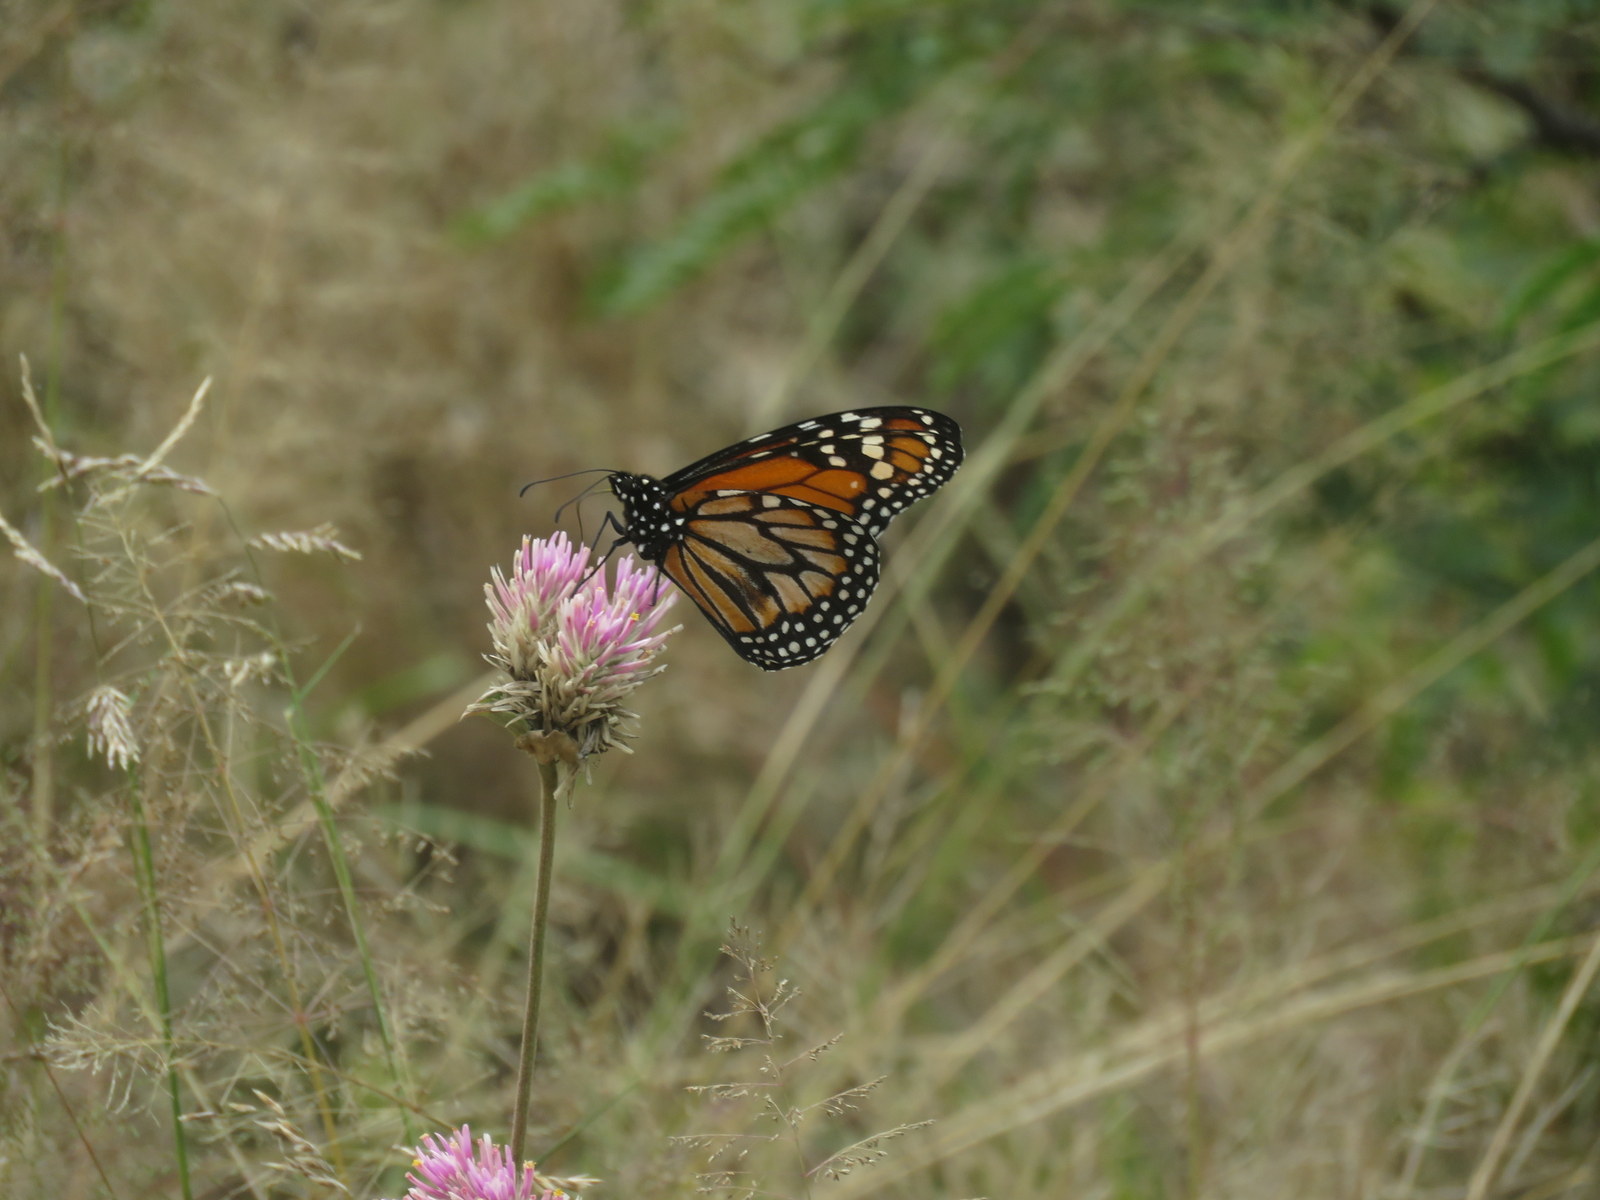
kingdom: Animalia
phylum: Arthropoda
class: Insecta
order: Lepidoptera
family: Nymphalidae
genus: Danaus
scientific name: Danaus erippus
